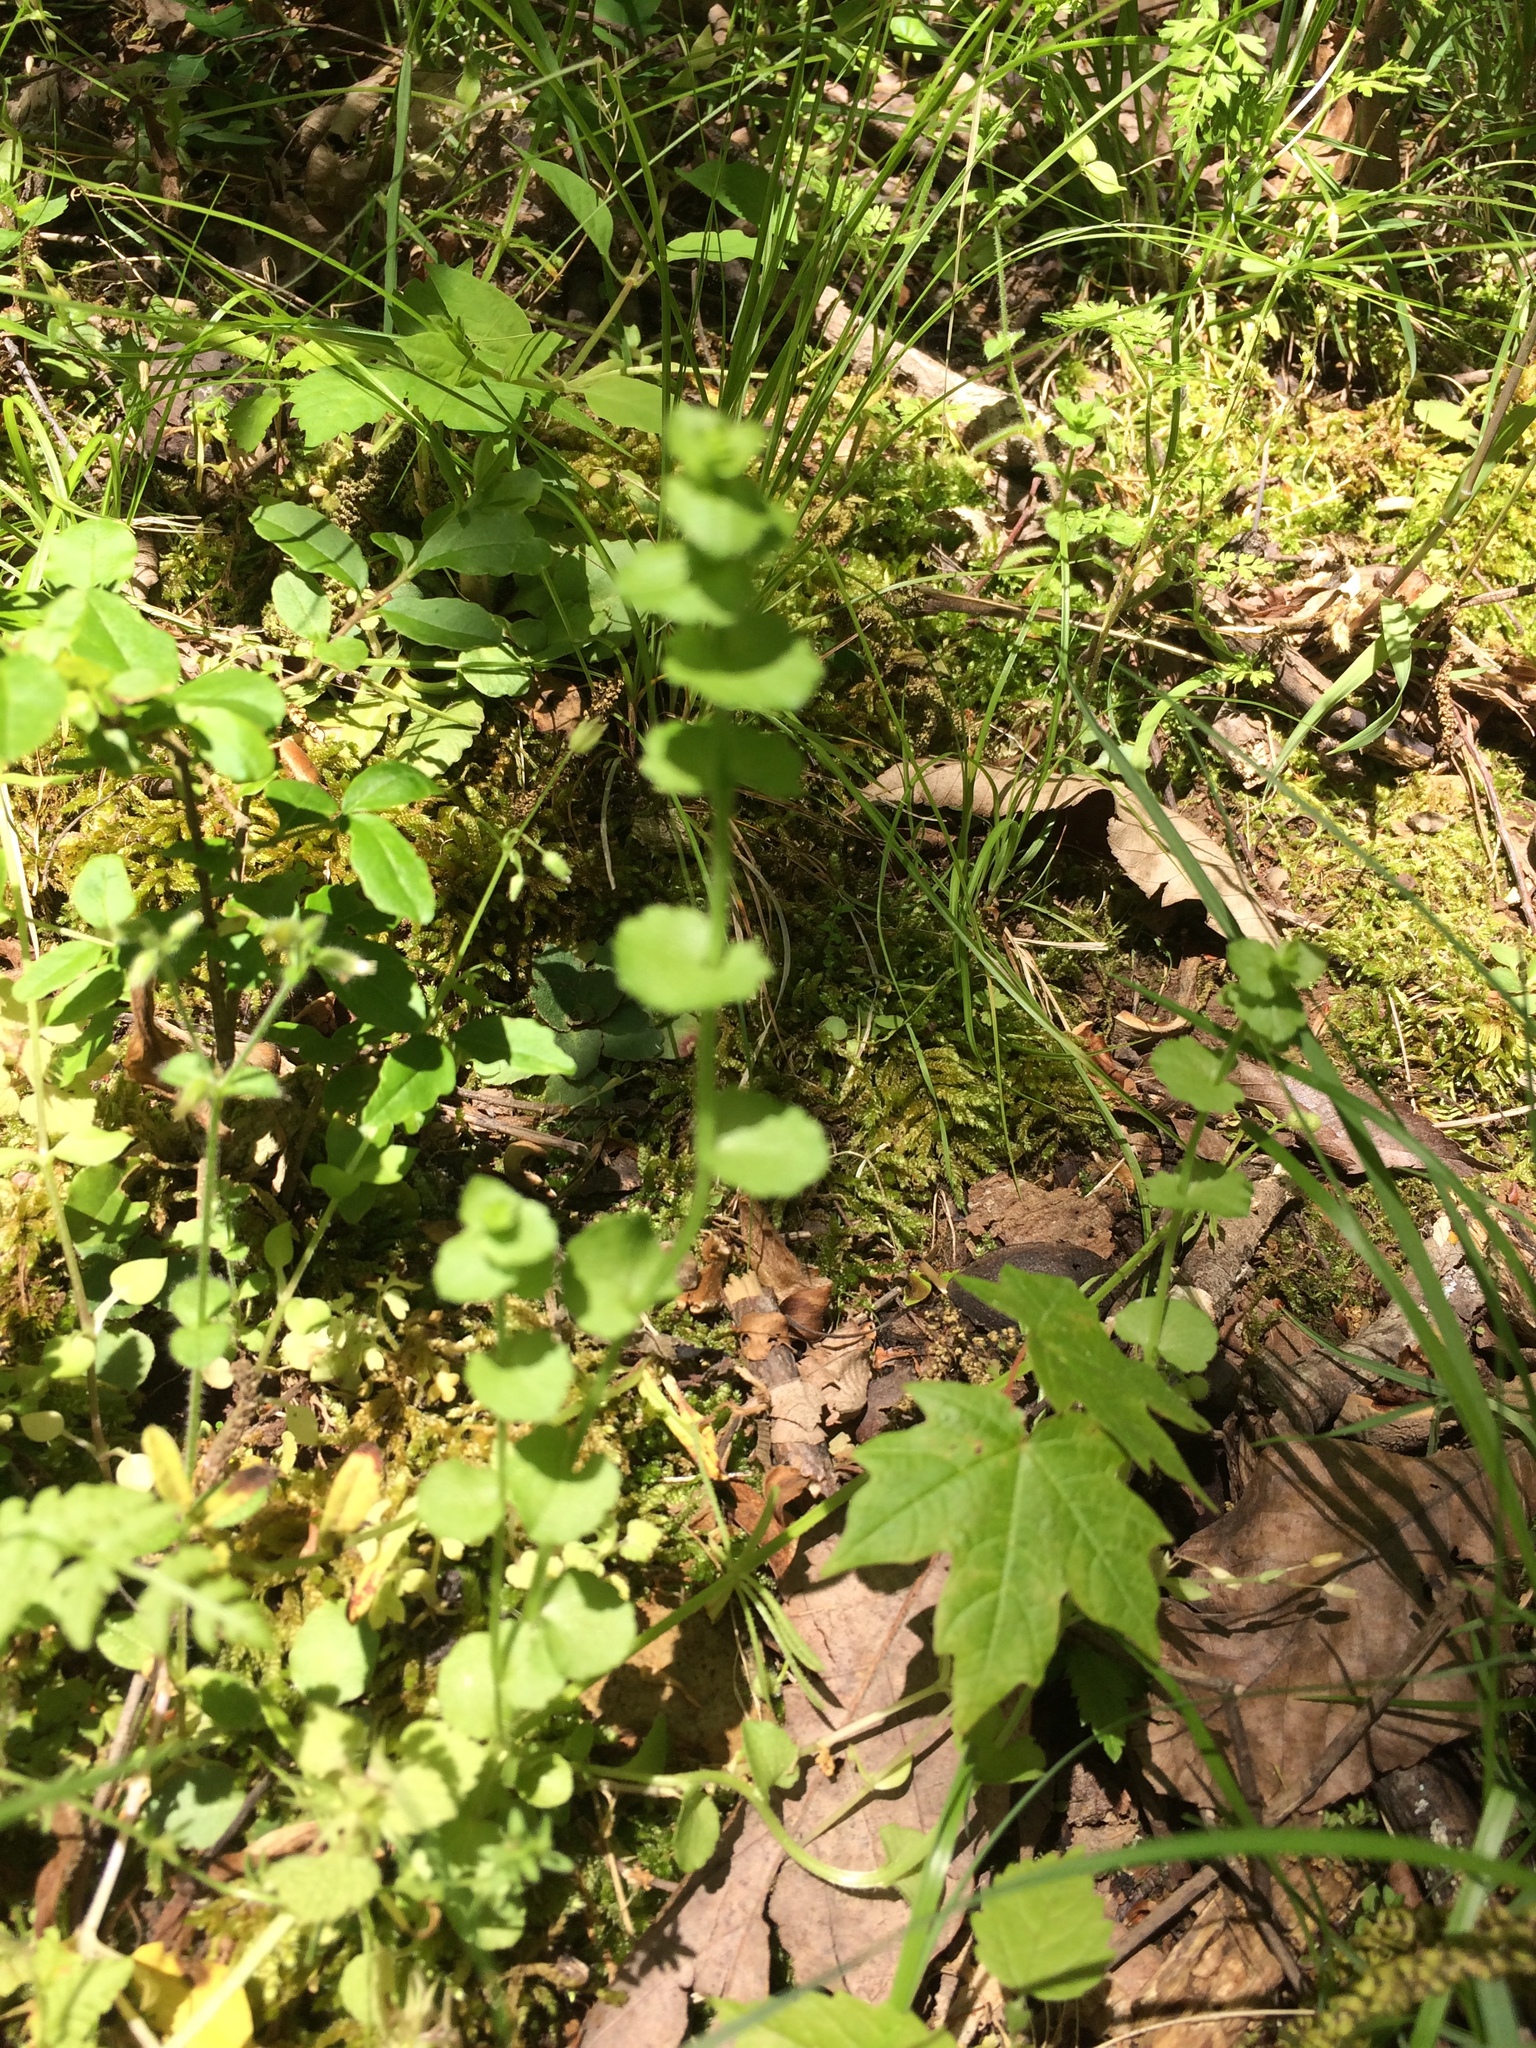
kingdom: Plantae
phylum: Tracheophyta
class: Magnoliopsida
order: Asterales
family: Campanulaceae
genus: Triodanis
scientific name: Triodanis perfoliata
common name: Clasping venus' looking-glass
